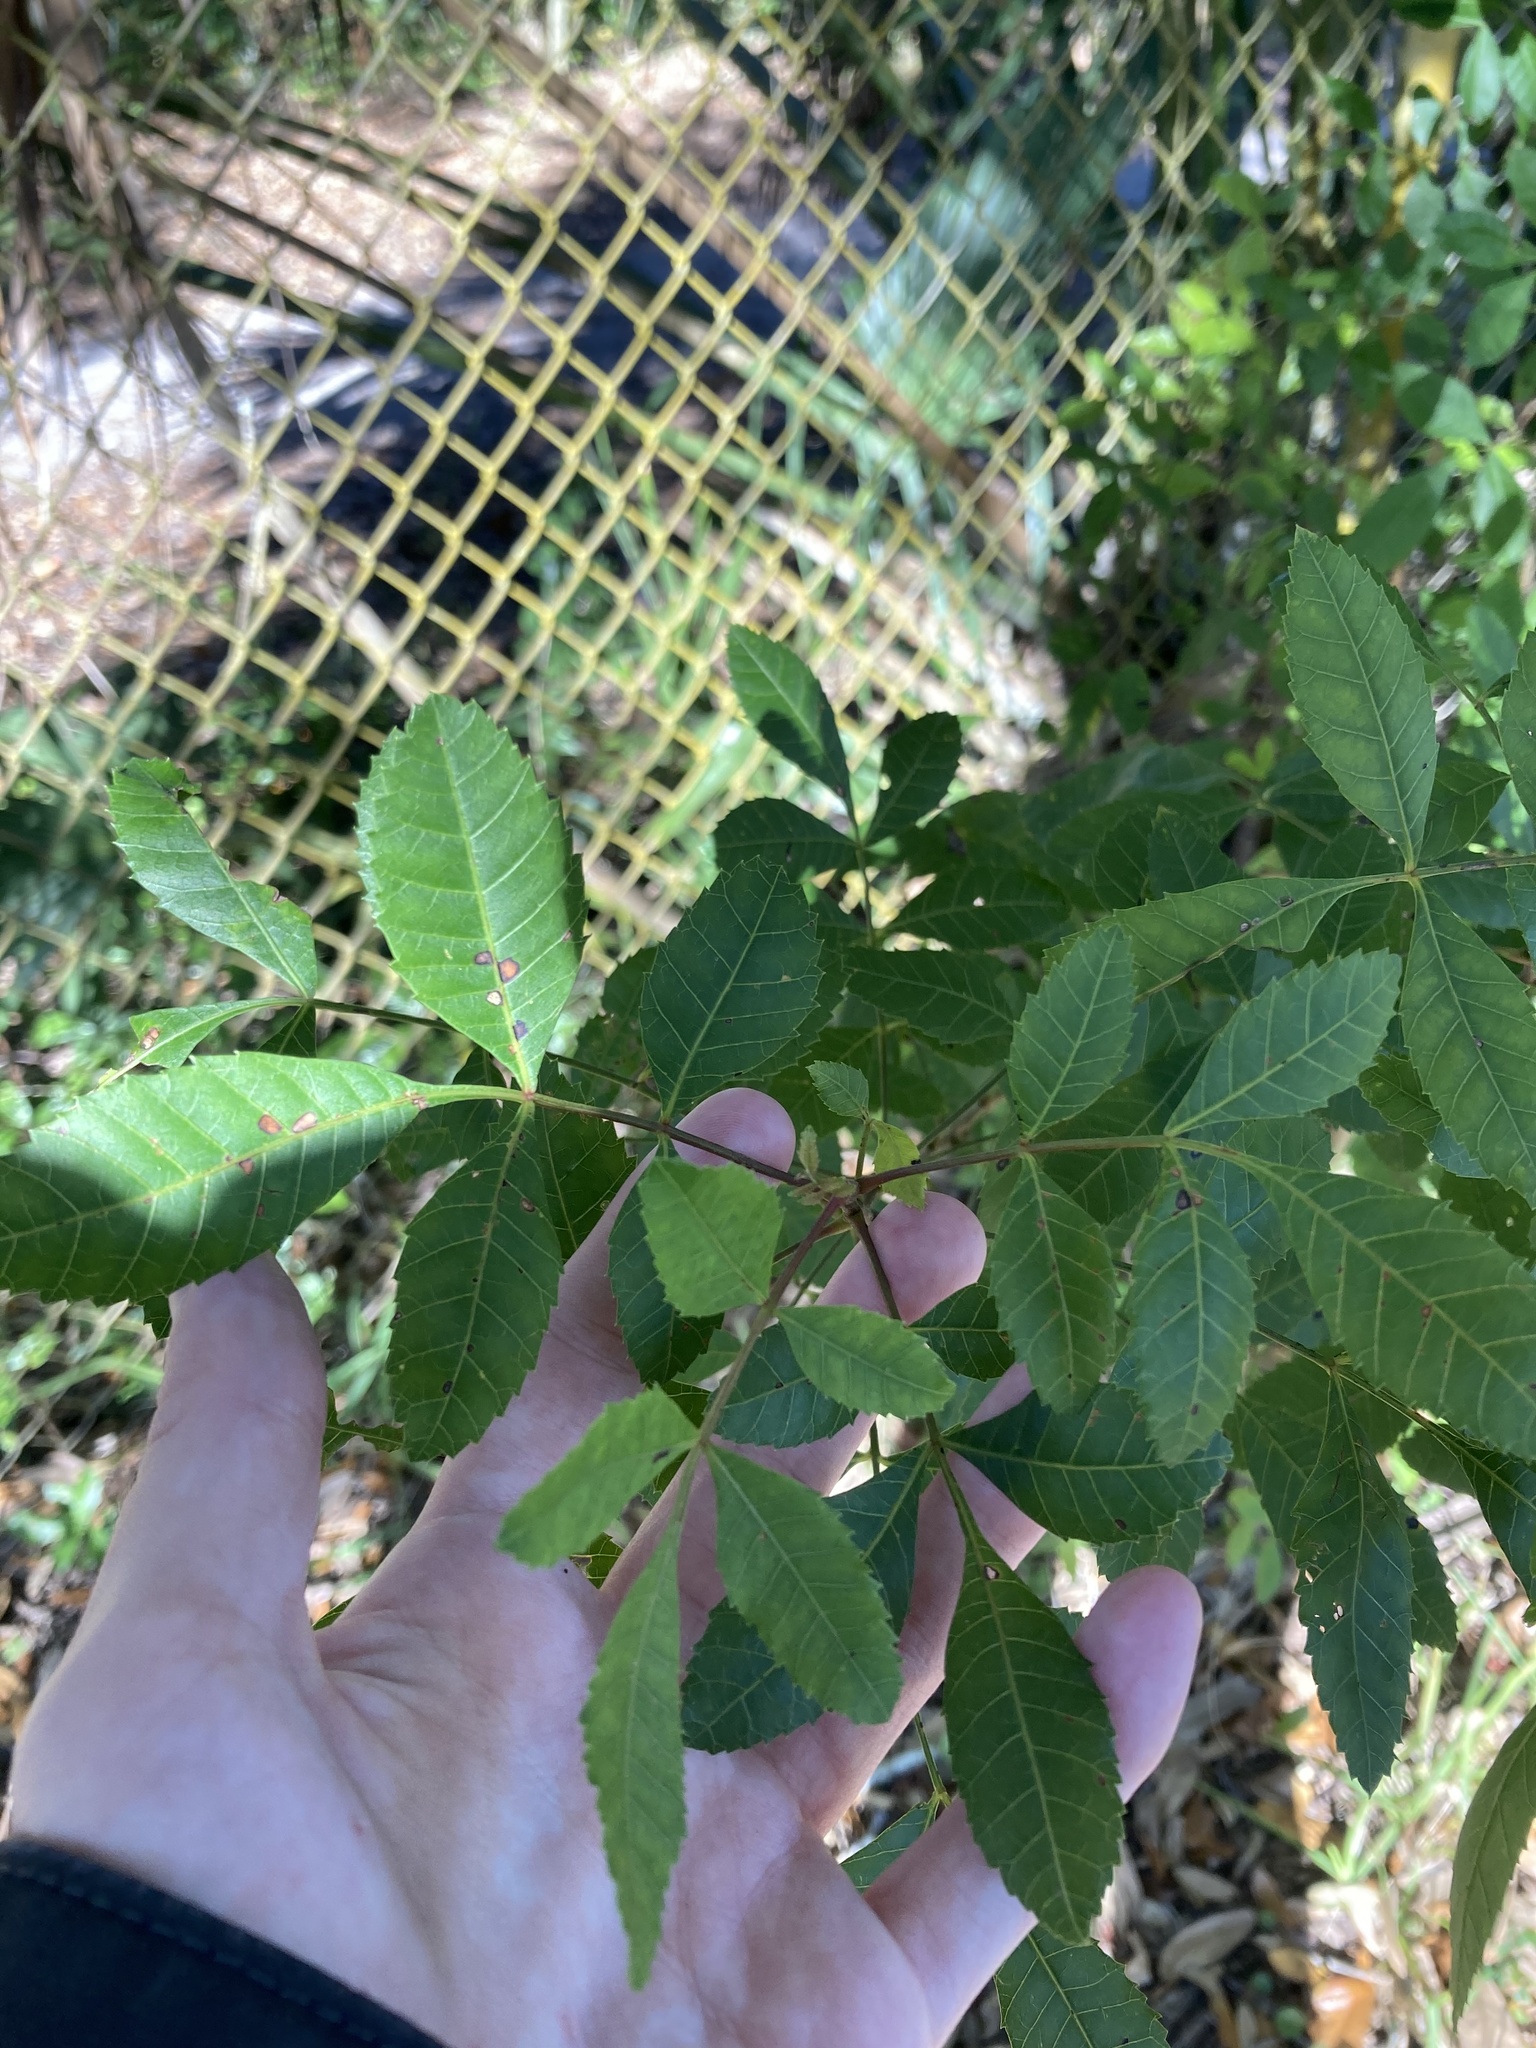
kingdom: Plantae
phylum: Tracheophyta
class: Magnoliopsida
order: Sapindales
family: Anacardiaceae
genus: Schinus
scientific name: Schinus terebinthifolia
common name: Brazilian peppertree
